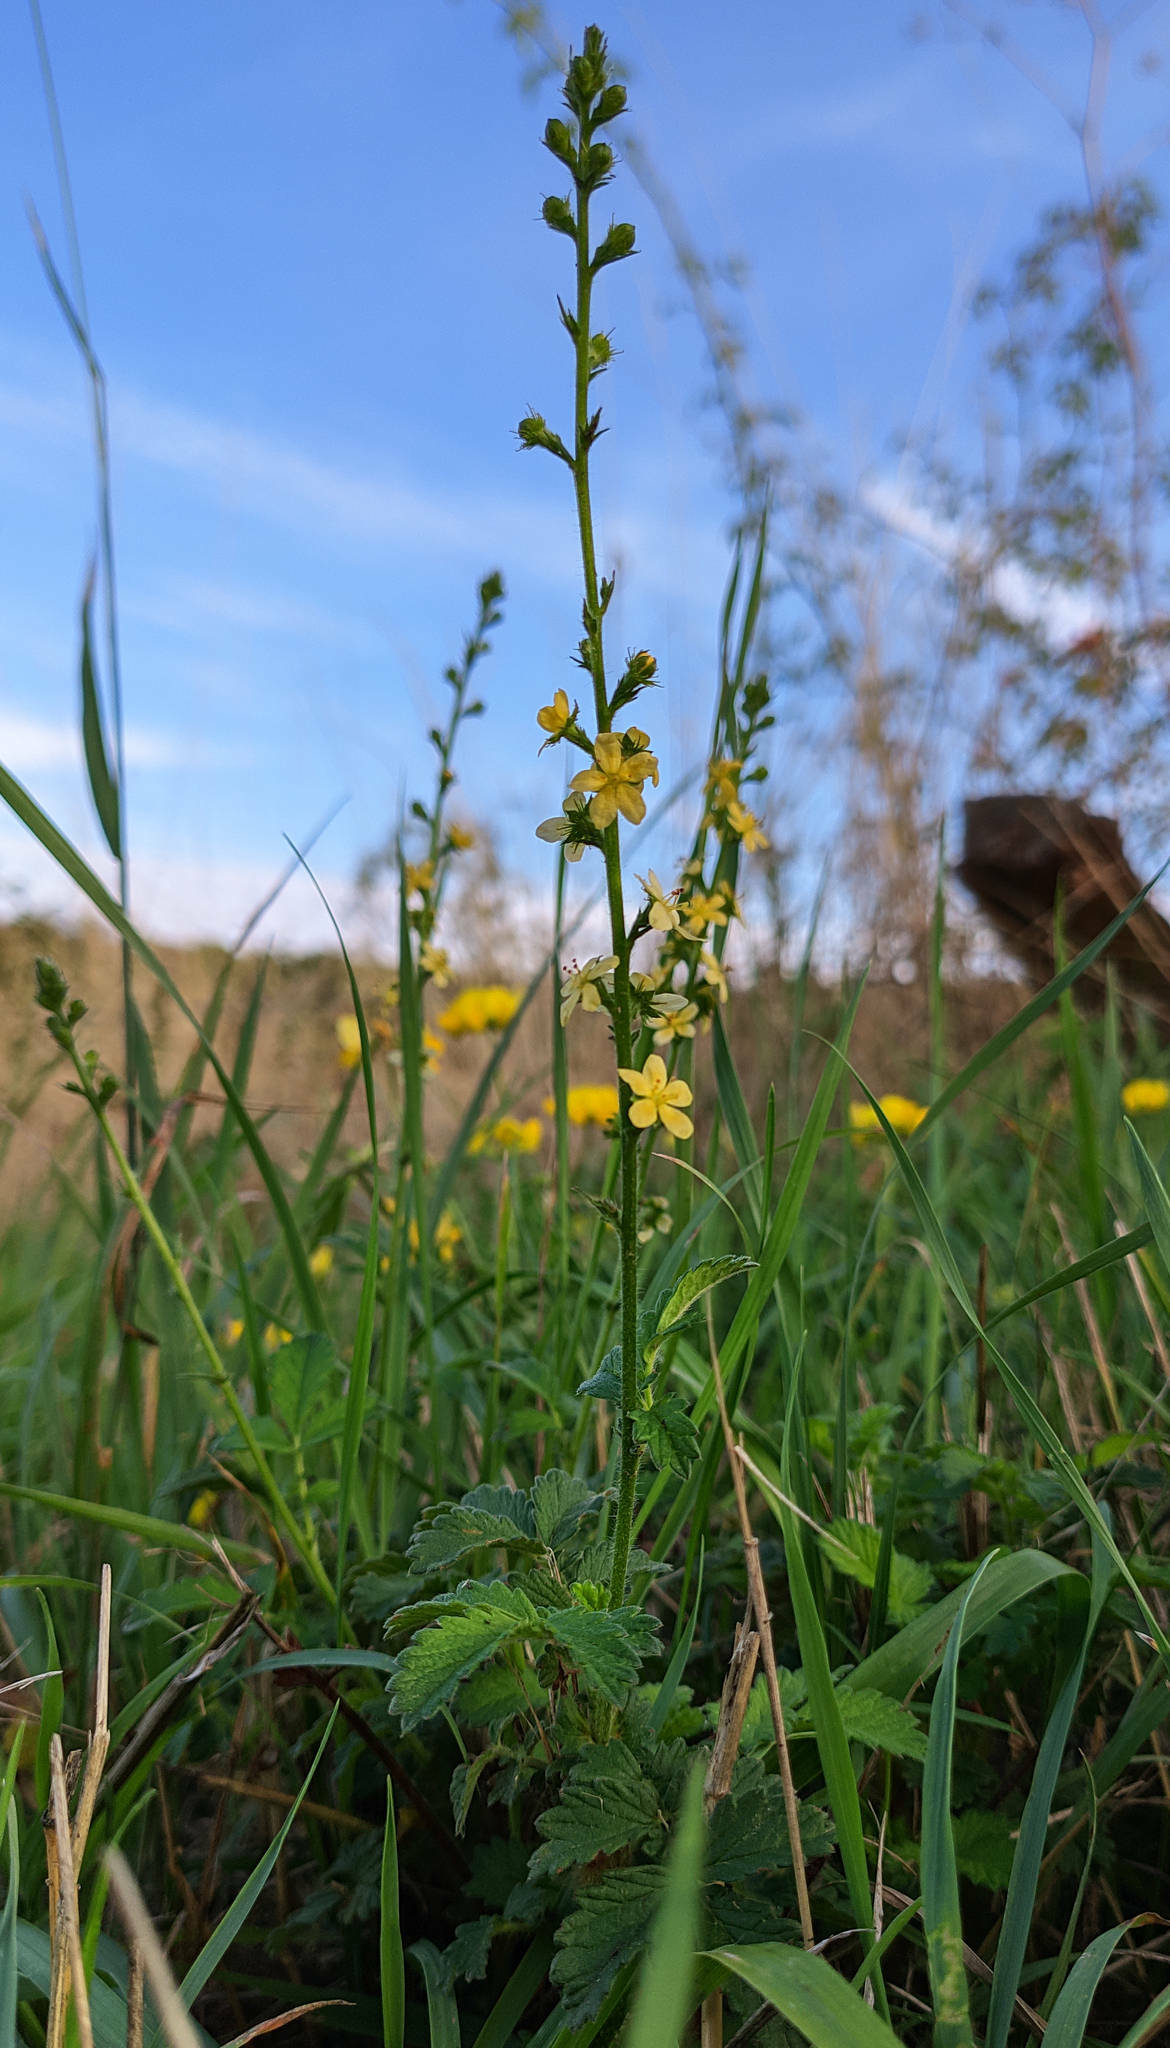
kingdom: Plantae
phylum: Tracheophyta
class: Magnoliopsida
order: Rosales
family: Rosaceae
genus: Agrimonia
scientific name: Agrimonia eupatoria
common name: Agrimony
